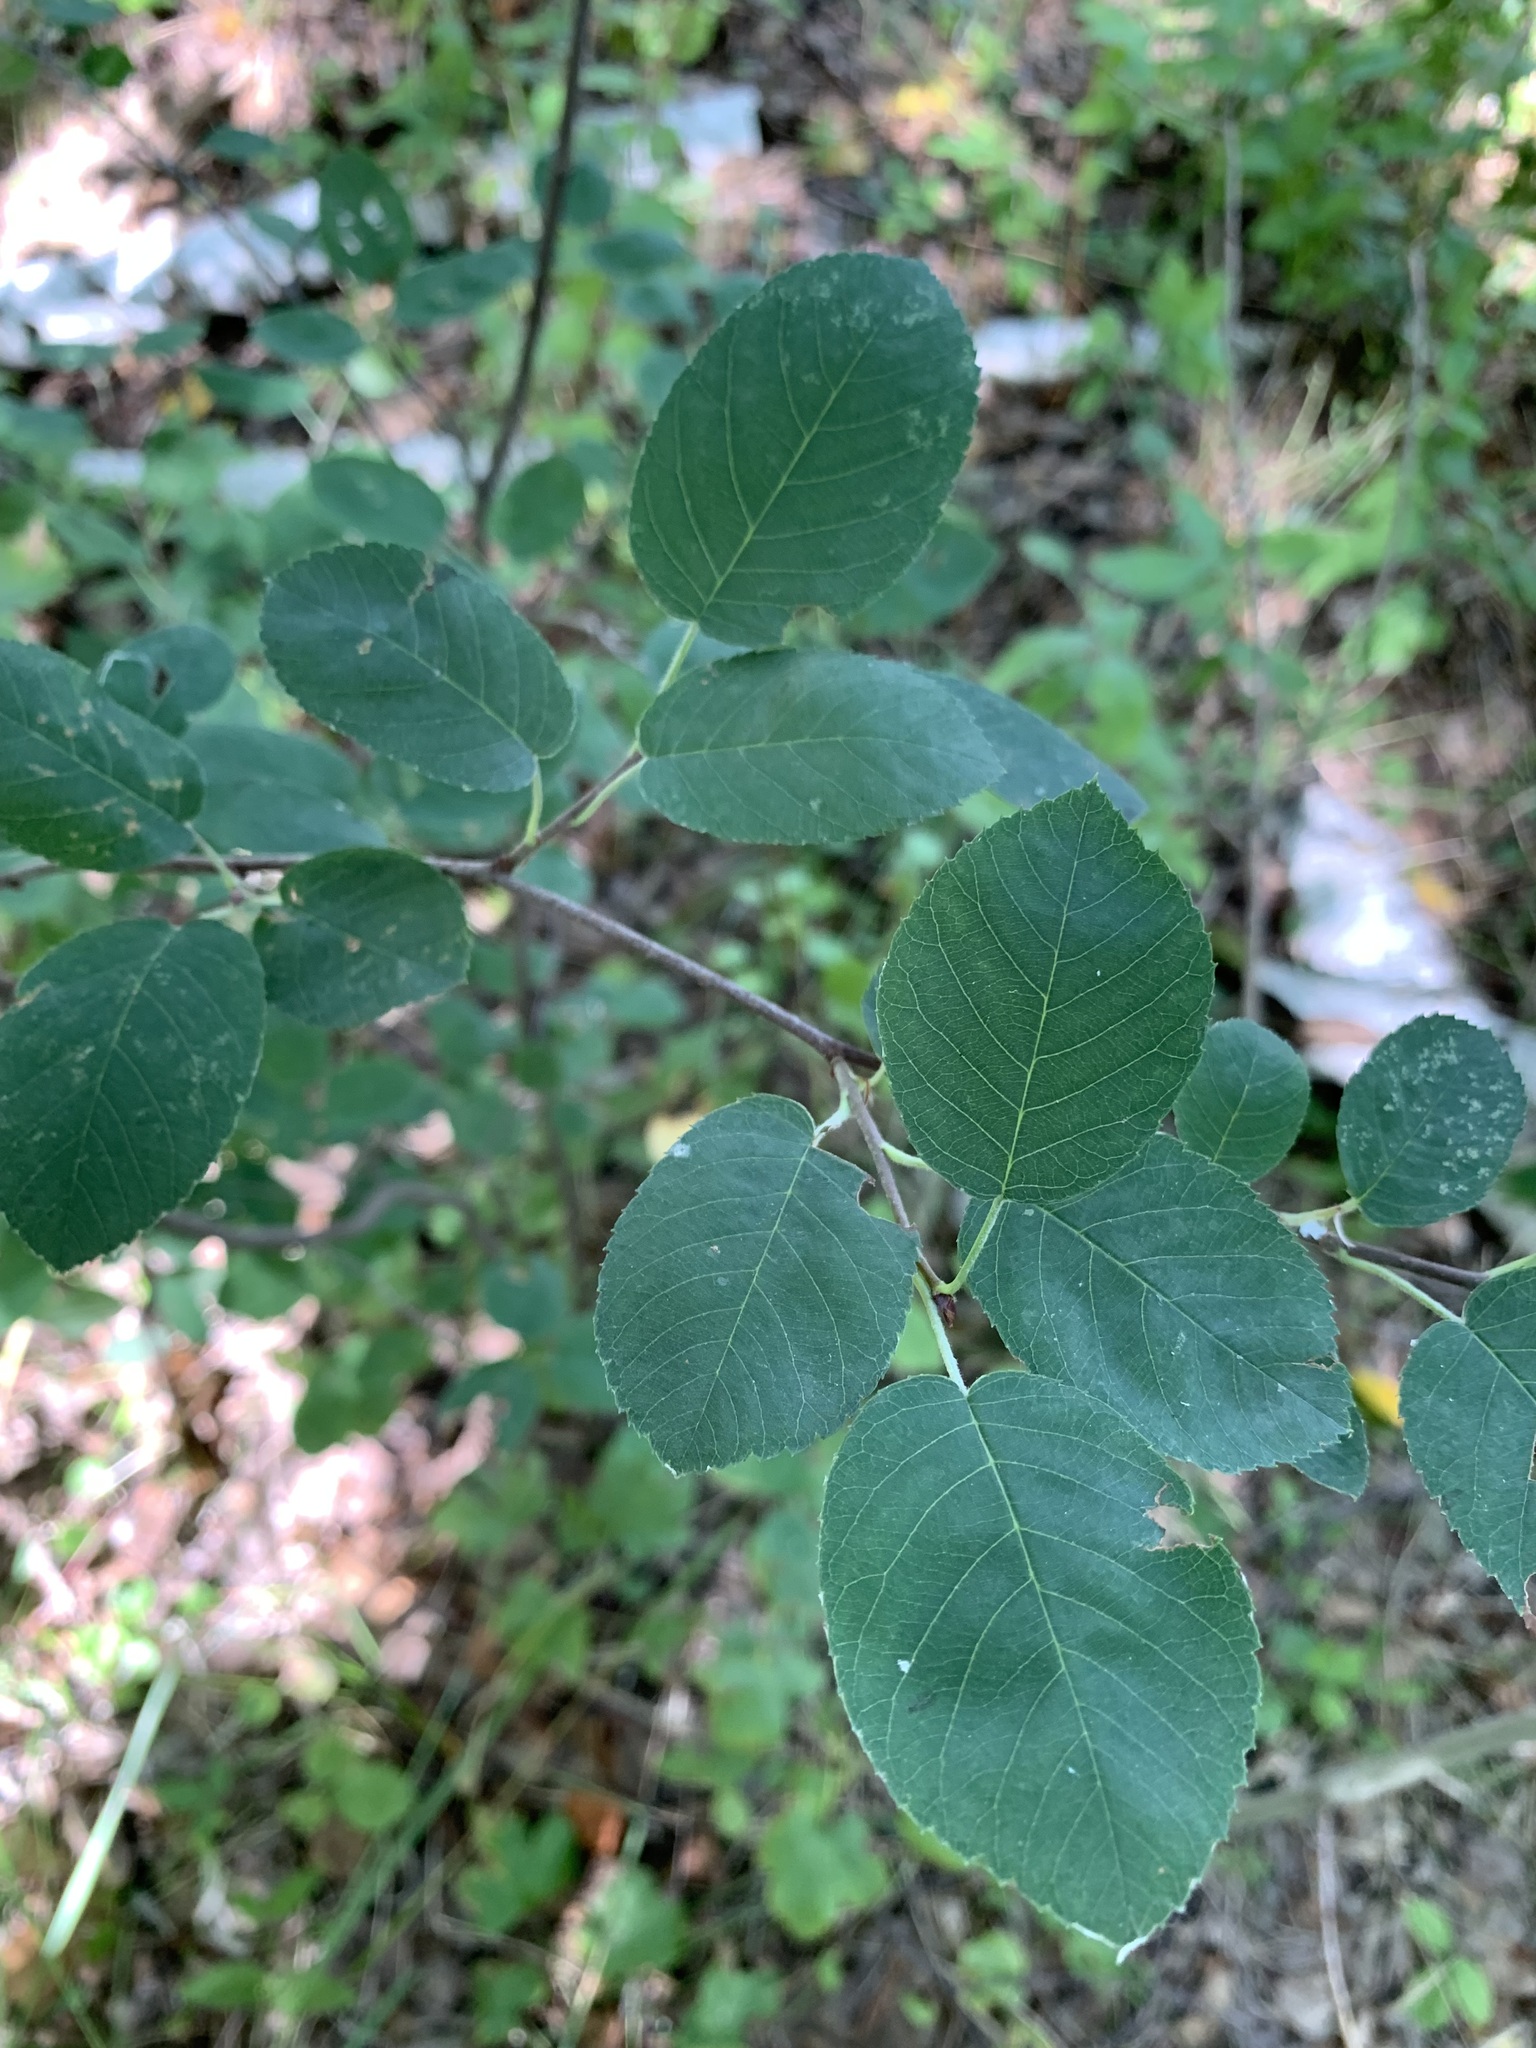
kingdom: Plantae
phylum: Tracheophyta
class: Magnoliopsida
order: Rosales
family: Rosaceae
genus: Amelanchier
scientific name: Amelanchier
